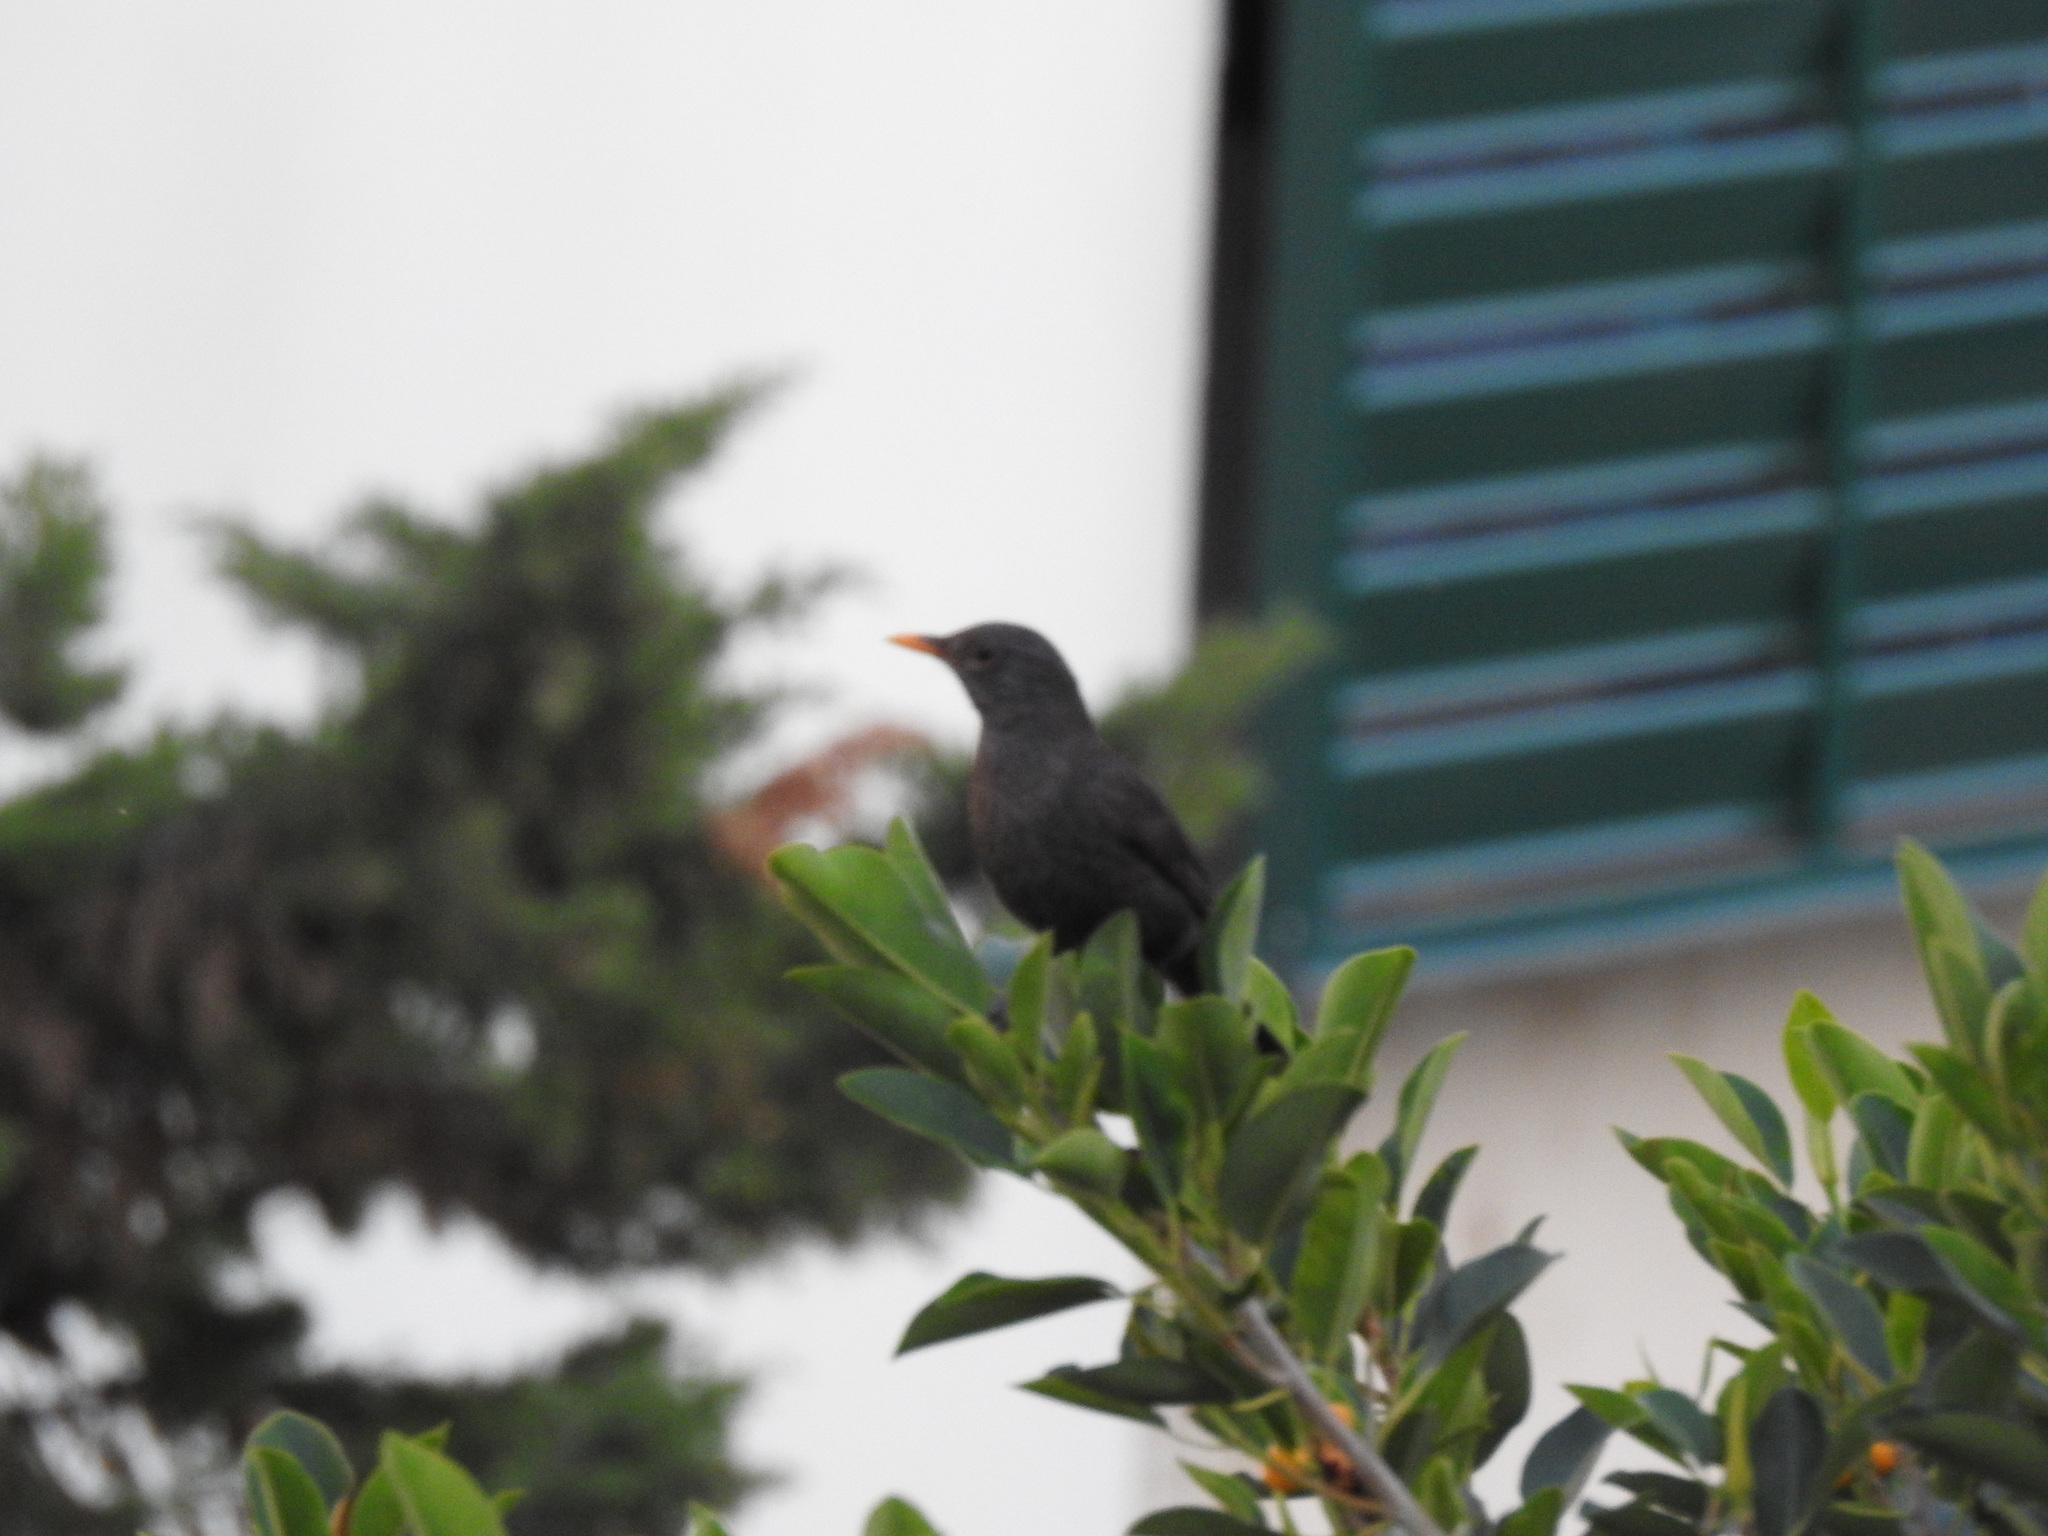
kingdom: Animalia
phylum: Chordata
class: Aves
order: Passeriformes
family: Turdidae
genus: Turdus
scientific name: Turdus merula
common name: Common blackbird
